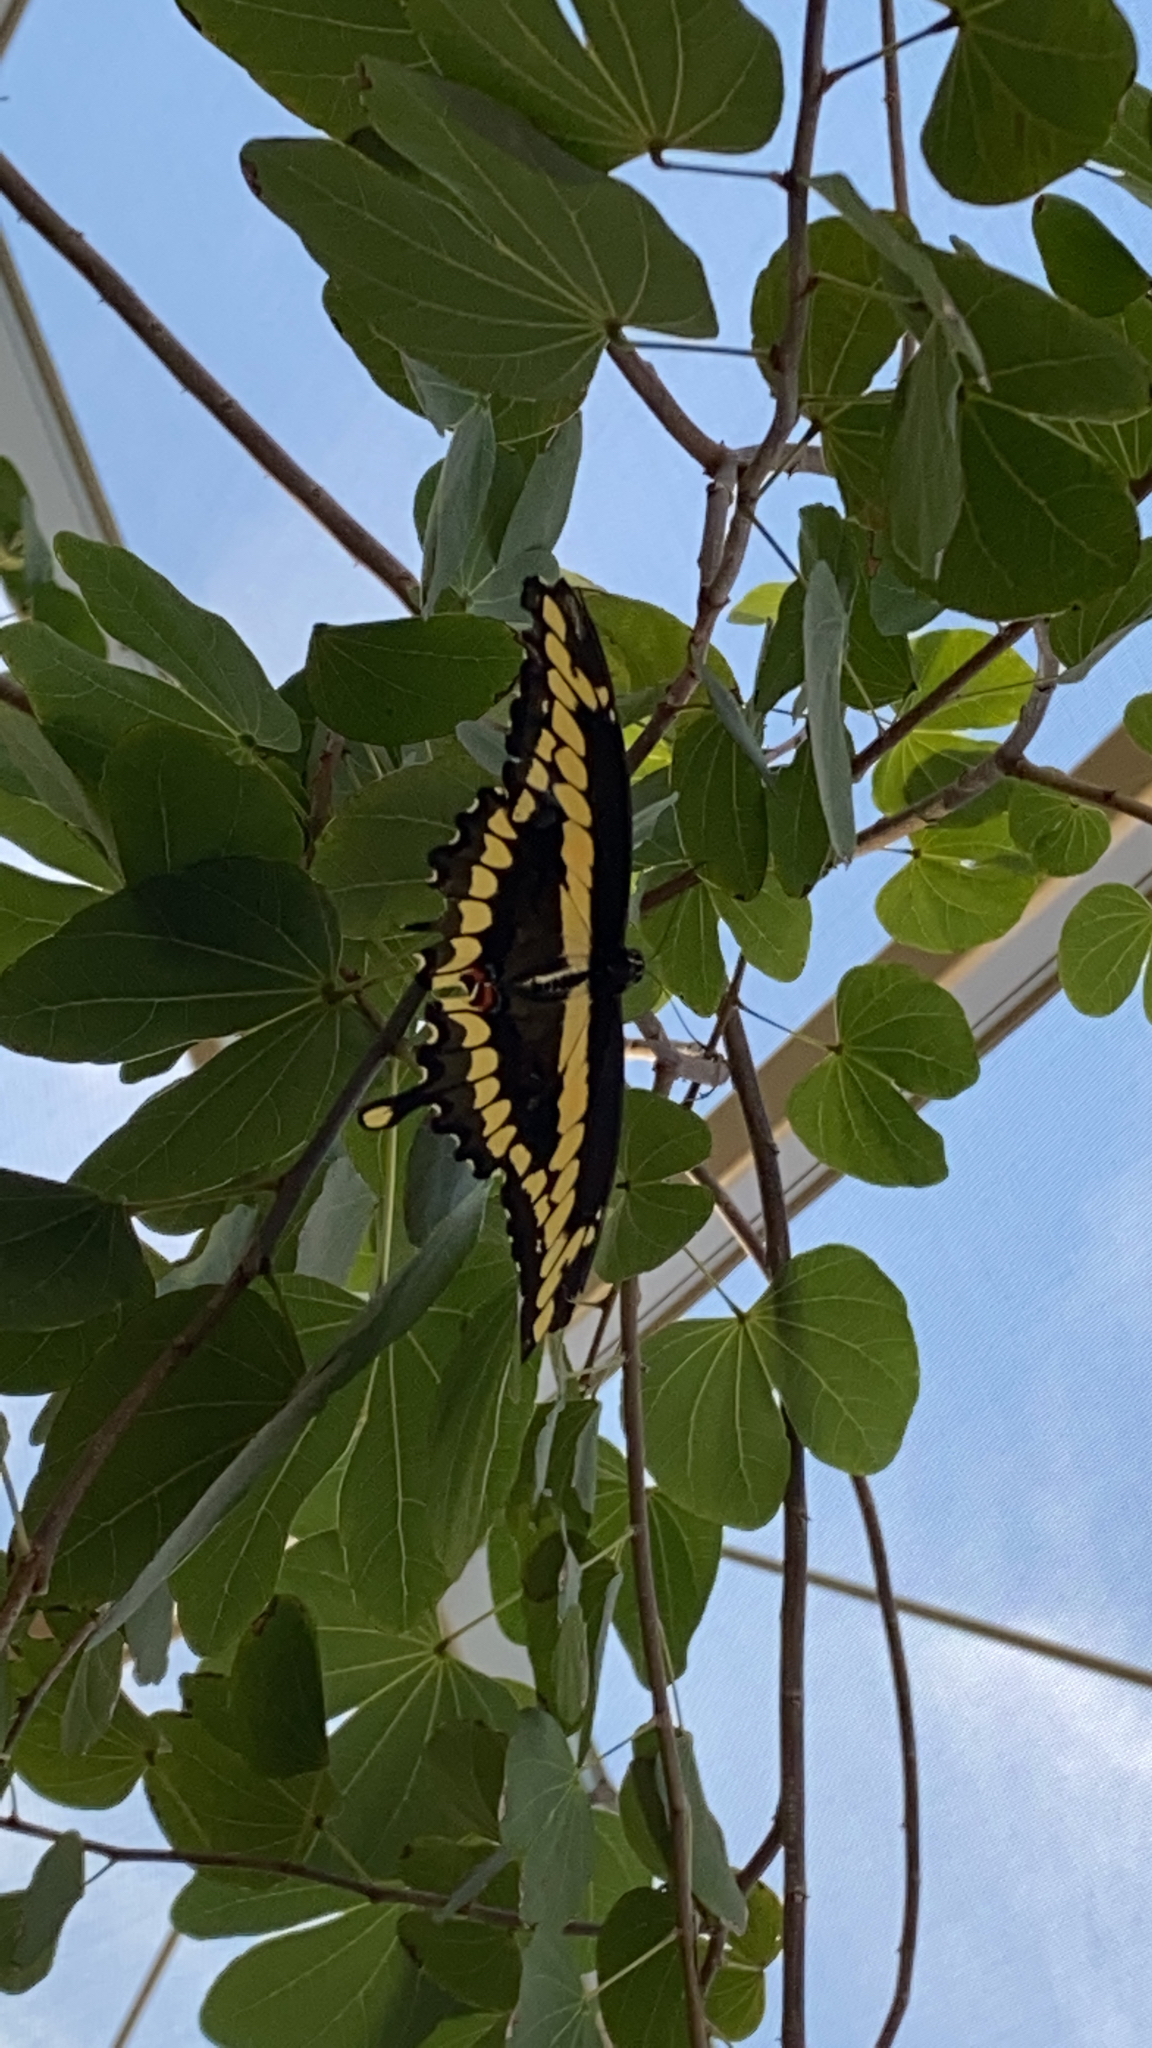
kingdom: Animalia
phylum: Arthropoda
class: Insecta
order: Lepidoptera
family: Papilionidae
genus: Papilio
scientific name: Papilio rumiko
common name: Western giant swallowtail
